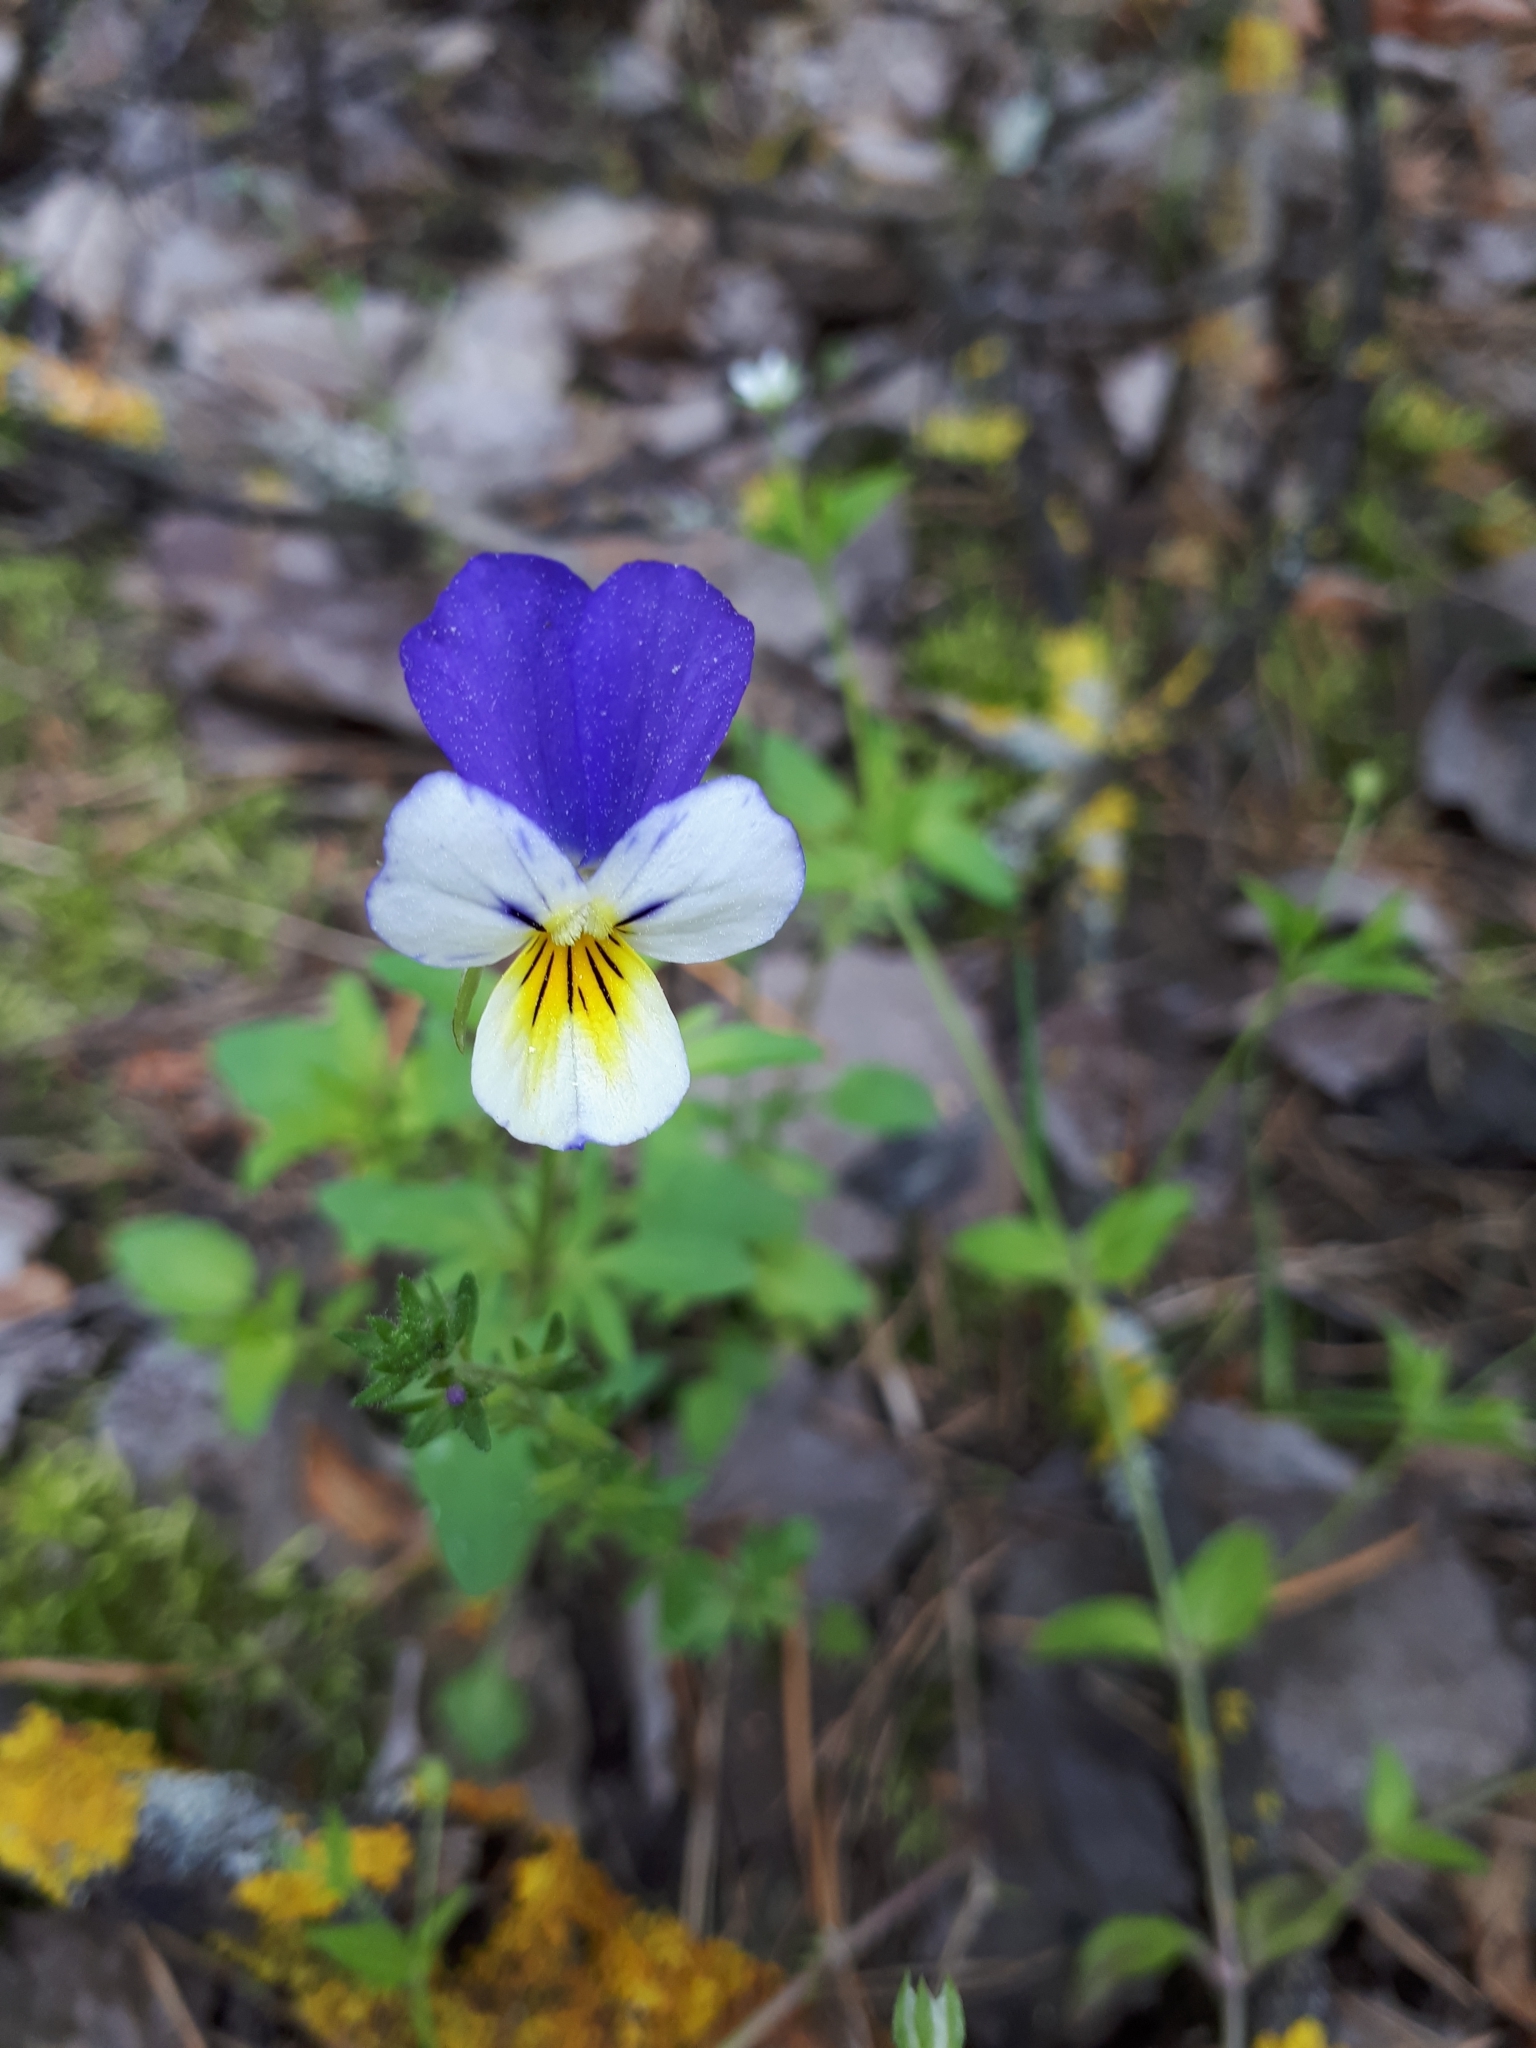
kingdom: Plantae
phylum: Tracheophyta
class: Magnoliopsida
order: Malpighiales
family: Violaceae
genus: Viola
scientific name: Viola tricolor
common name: Pansy
